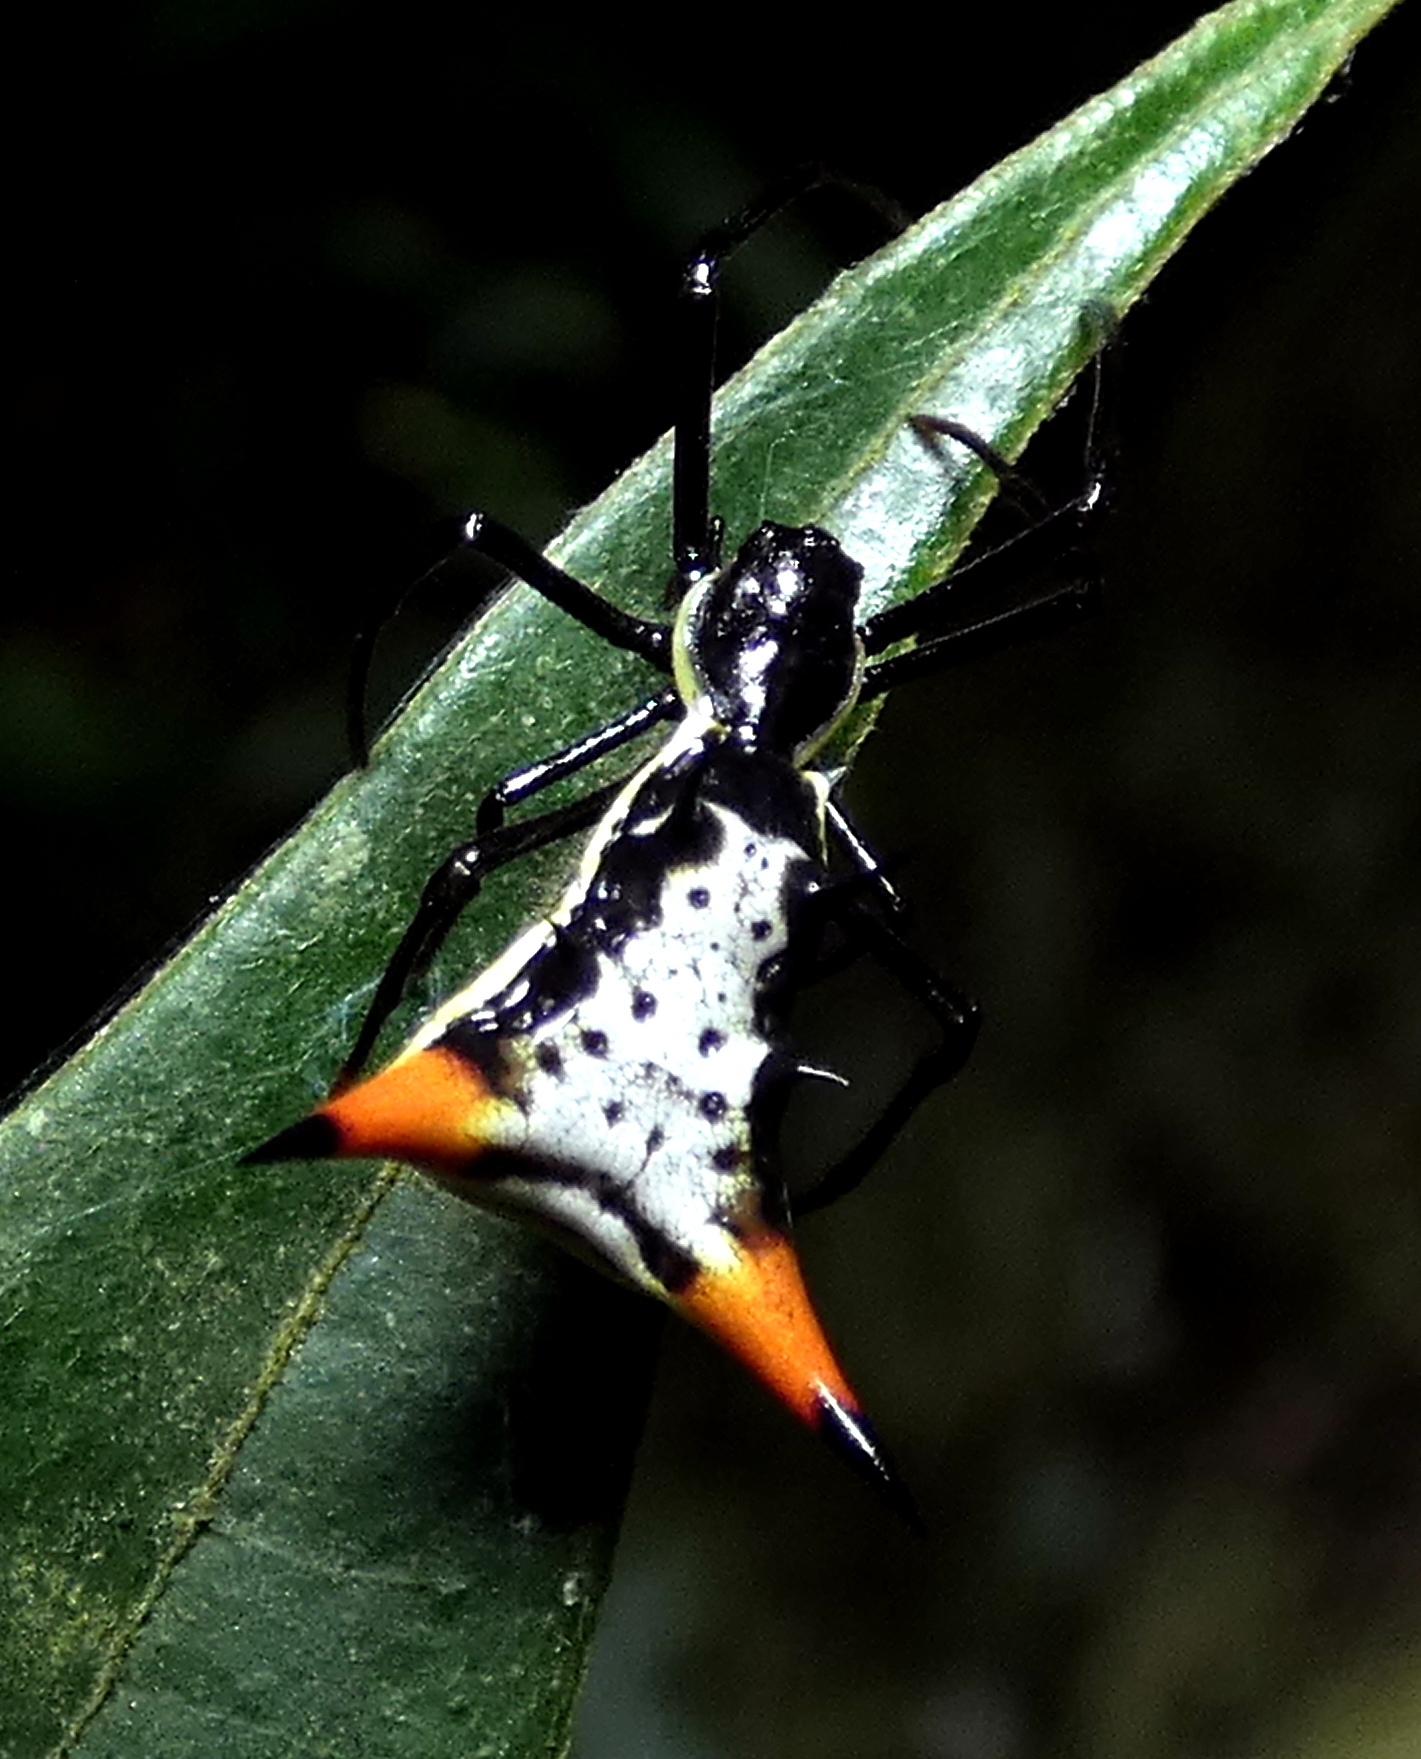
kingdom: Animalia
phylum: Arthropoda
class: Arachnida
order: Araneae
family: Araneidae
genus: Micrathena
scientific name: Micrathena schreibersi
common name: Orb weavers
